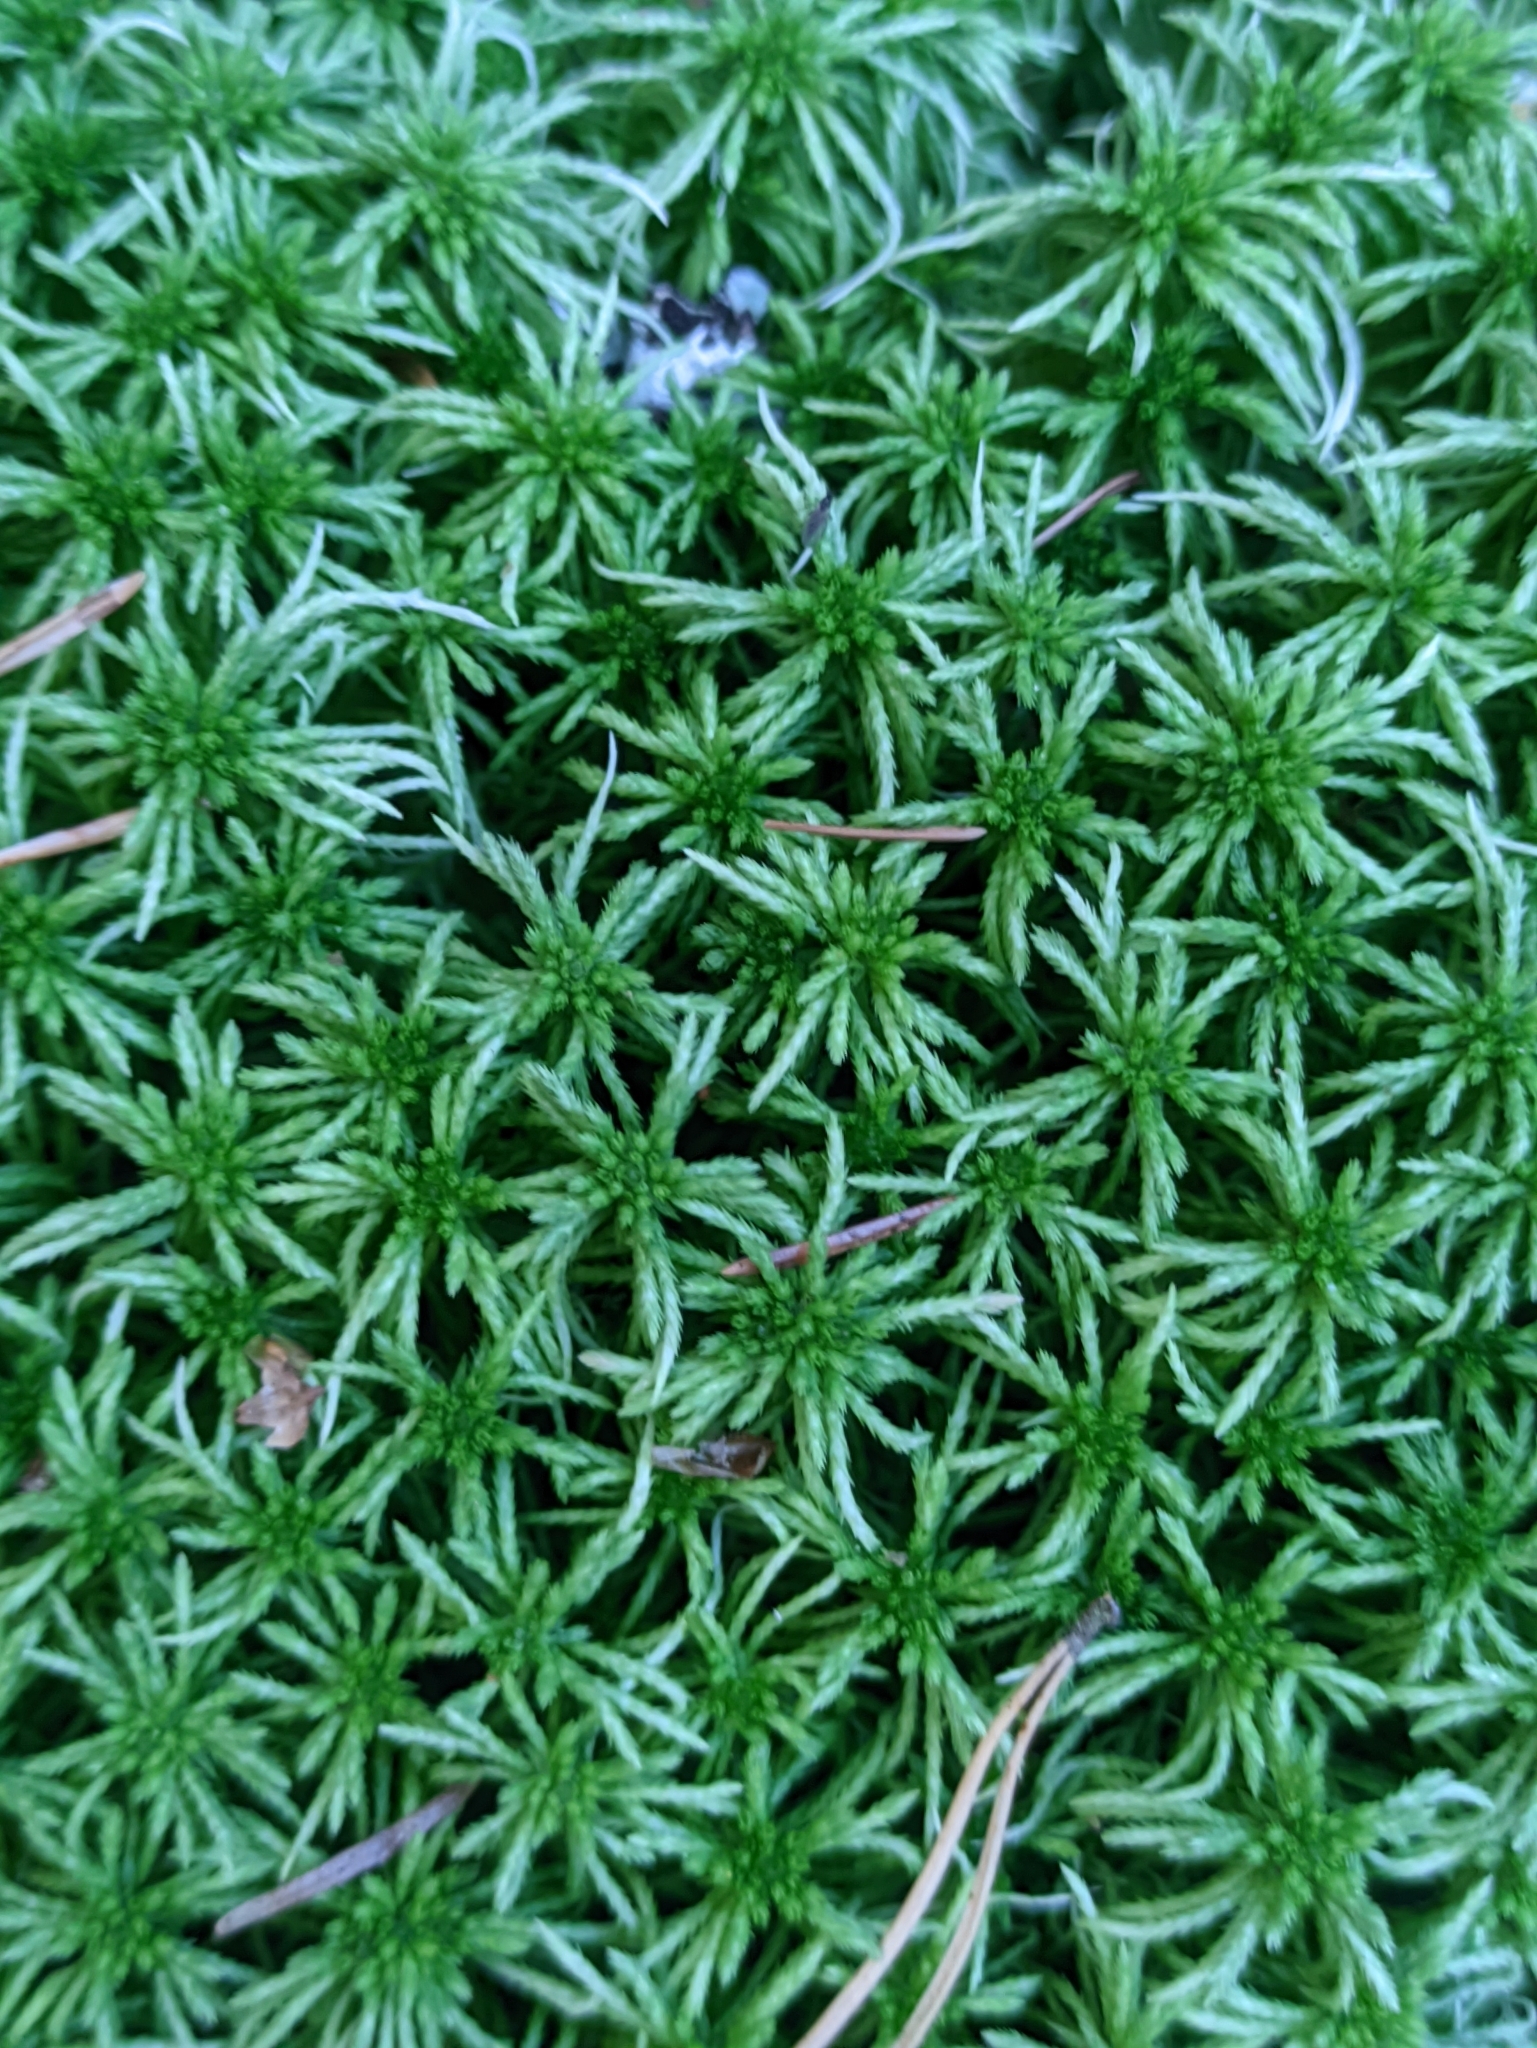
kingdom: Plantae
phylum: Bryophyta
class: Sphagnopsida
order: Sphagnales
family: Sphagnaceae
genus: Sphagnum
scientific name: Sphagnum girgensohnii
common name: Girgensohn's peat moss
